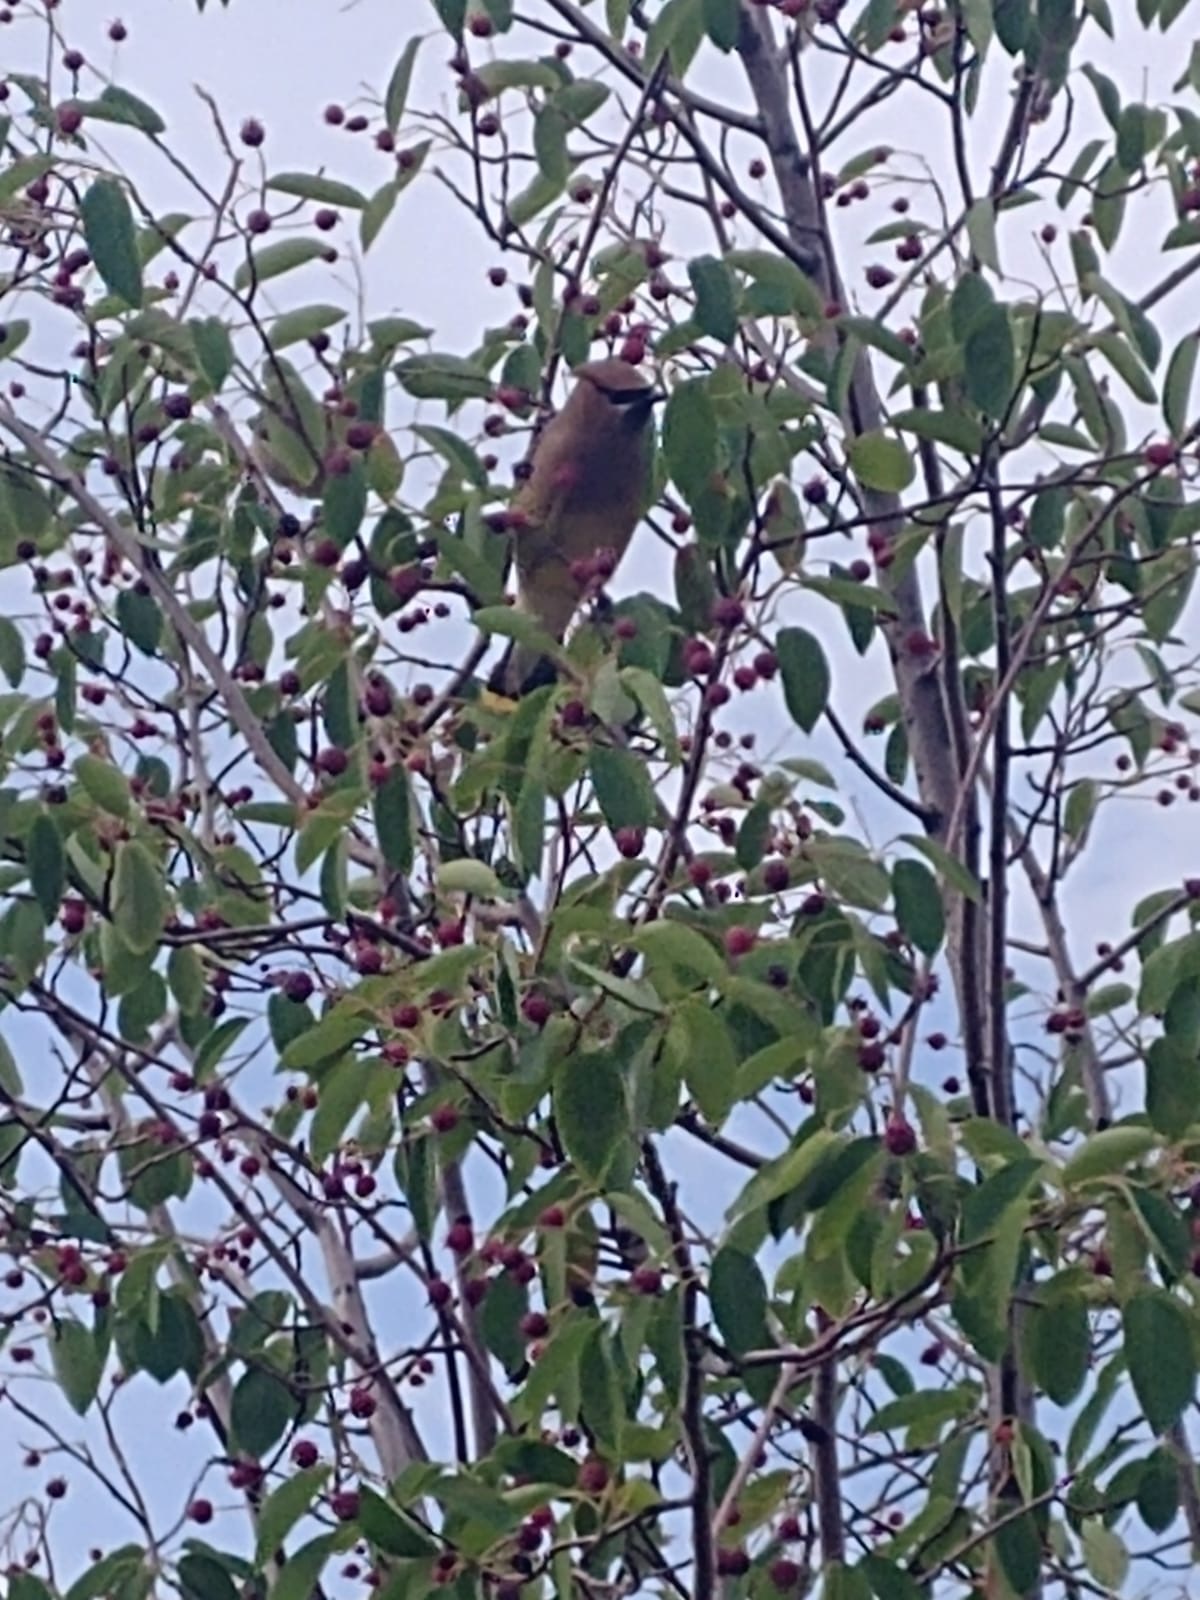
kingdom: Animalia
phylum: Chordata
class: Aves
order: Passeriformes
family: Bombycillidae
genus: Bombycilla
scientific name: Bombycilla cedrorum
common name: Cedar waxwing
